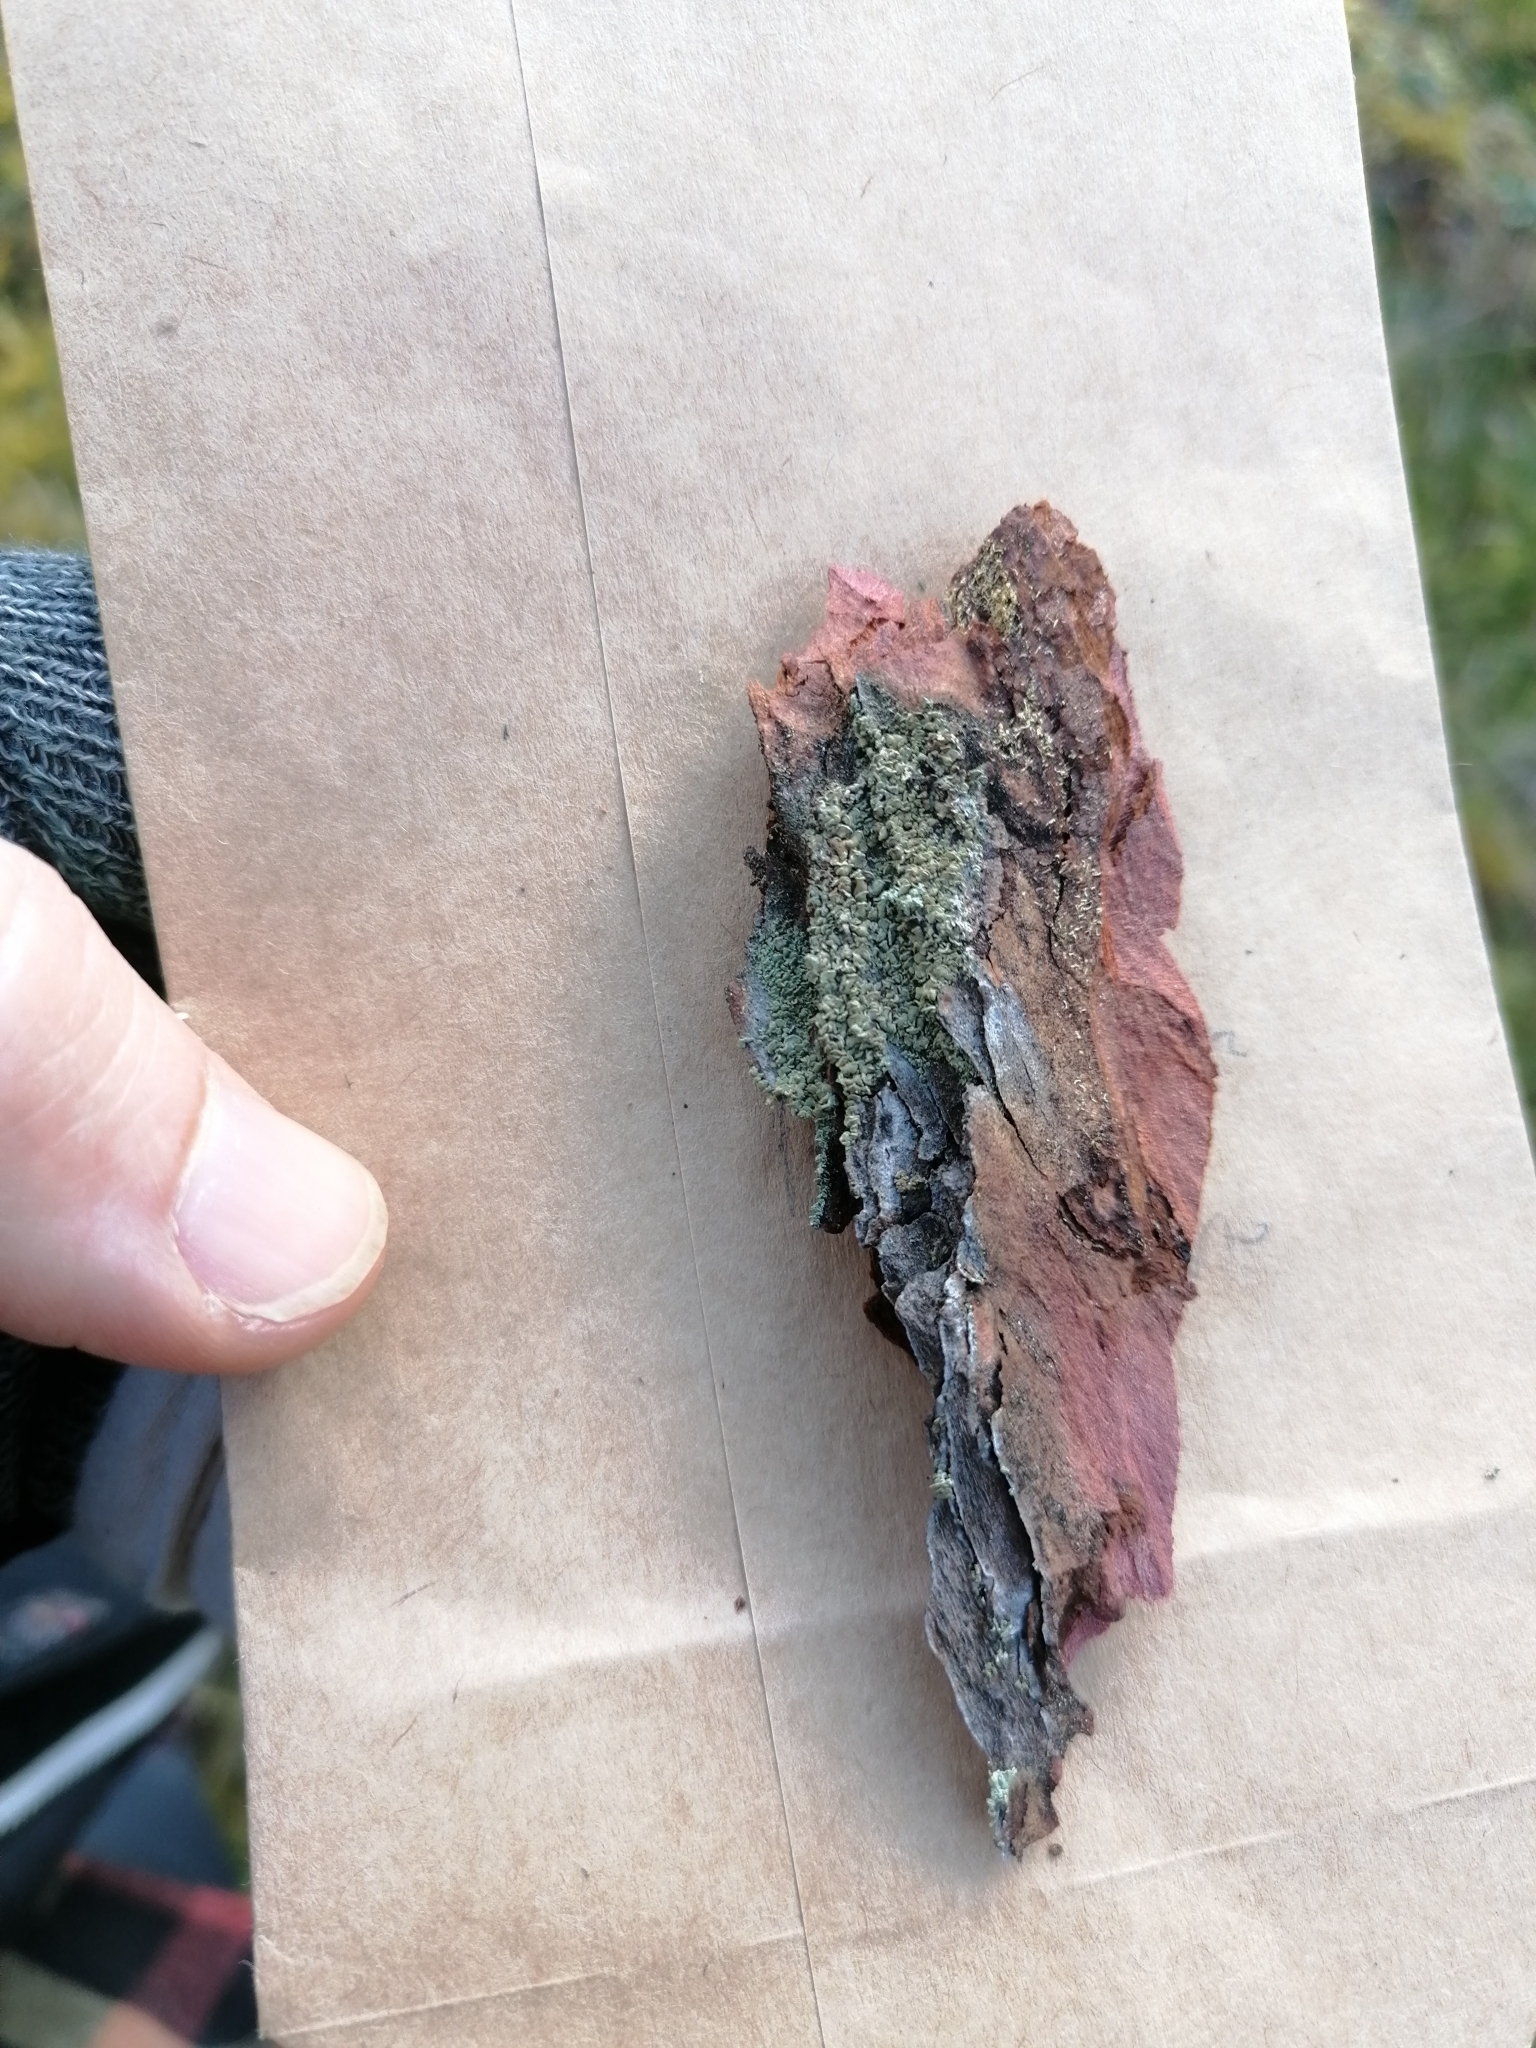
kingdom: Fungi
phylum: Ascomycota
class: Lecanoromycetes
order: Umbilicariales
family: Ophioparmaceae
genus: Hypocenomyce
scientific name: Hypocenomyce scalaris
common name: Common clam lichen
